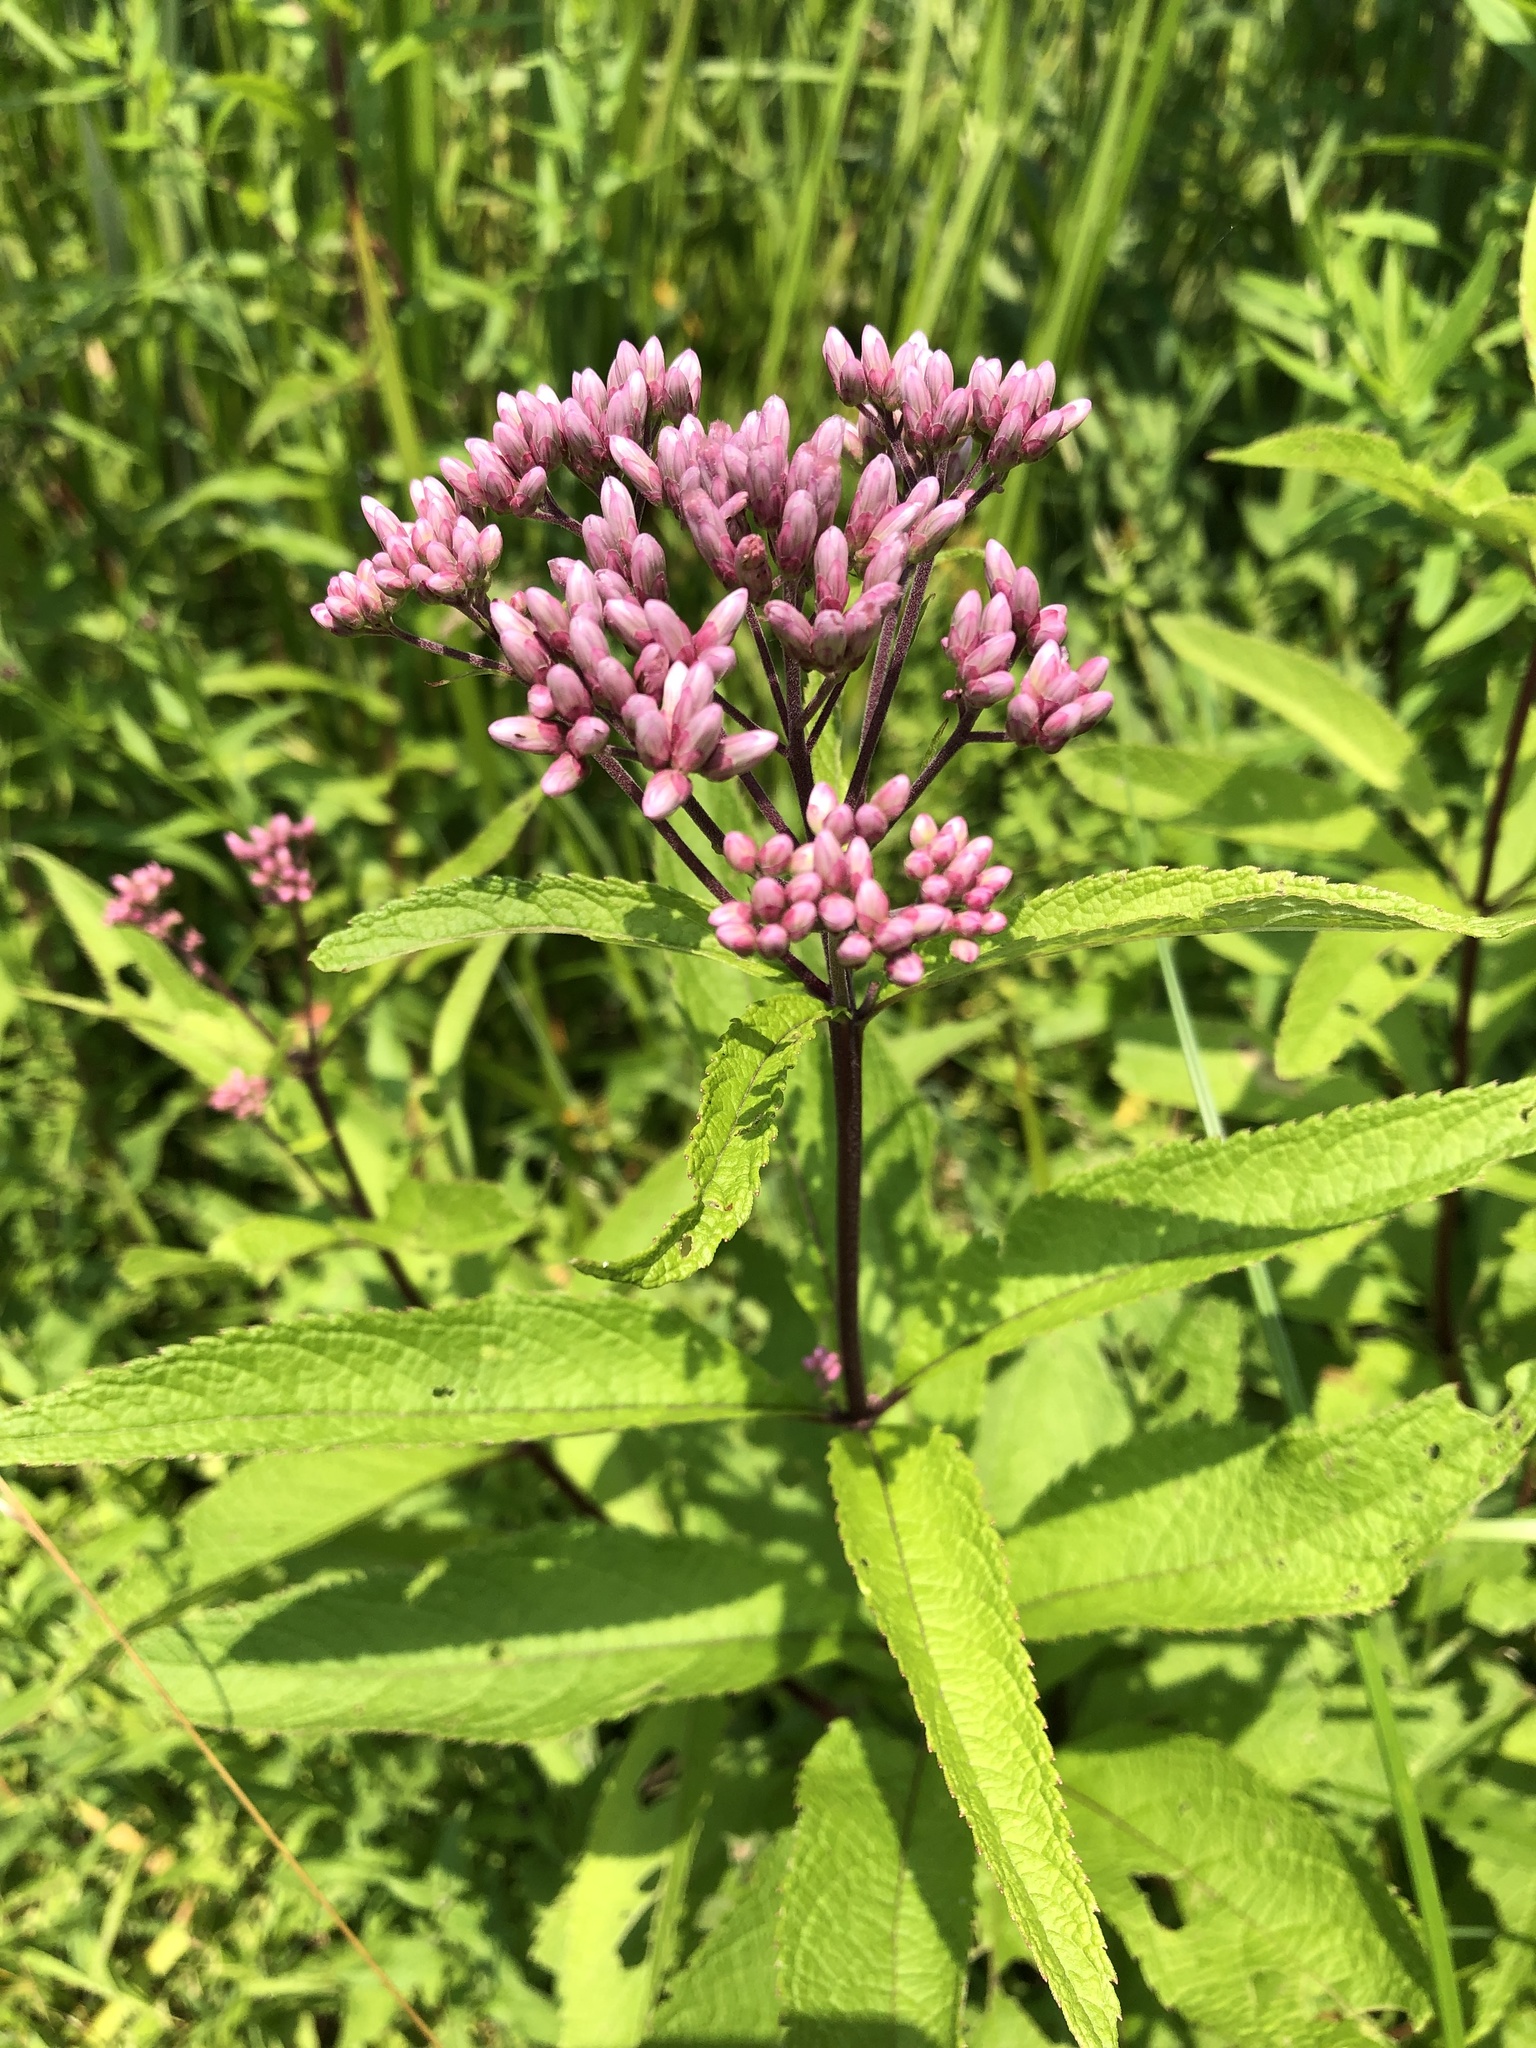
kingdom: Plantae
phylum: Tracheophyta
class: Magnoliopsida
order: Asterales
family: Asteraceae
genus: Eutrochium
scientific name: Eutrochium maculatum
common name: Spotted joe pye weed
